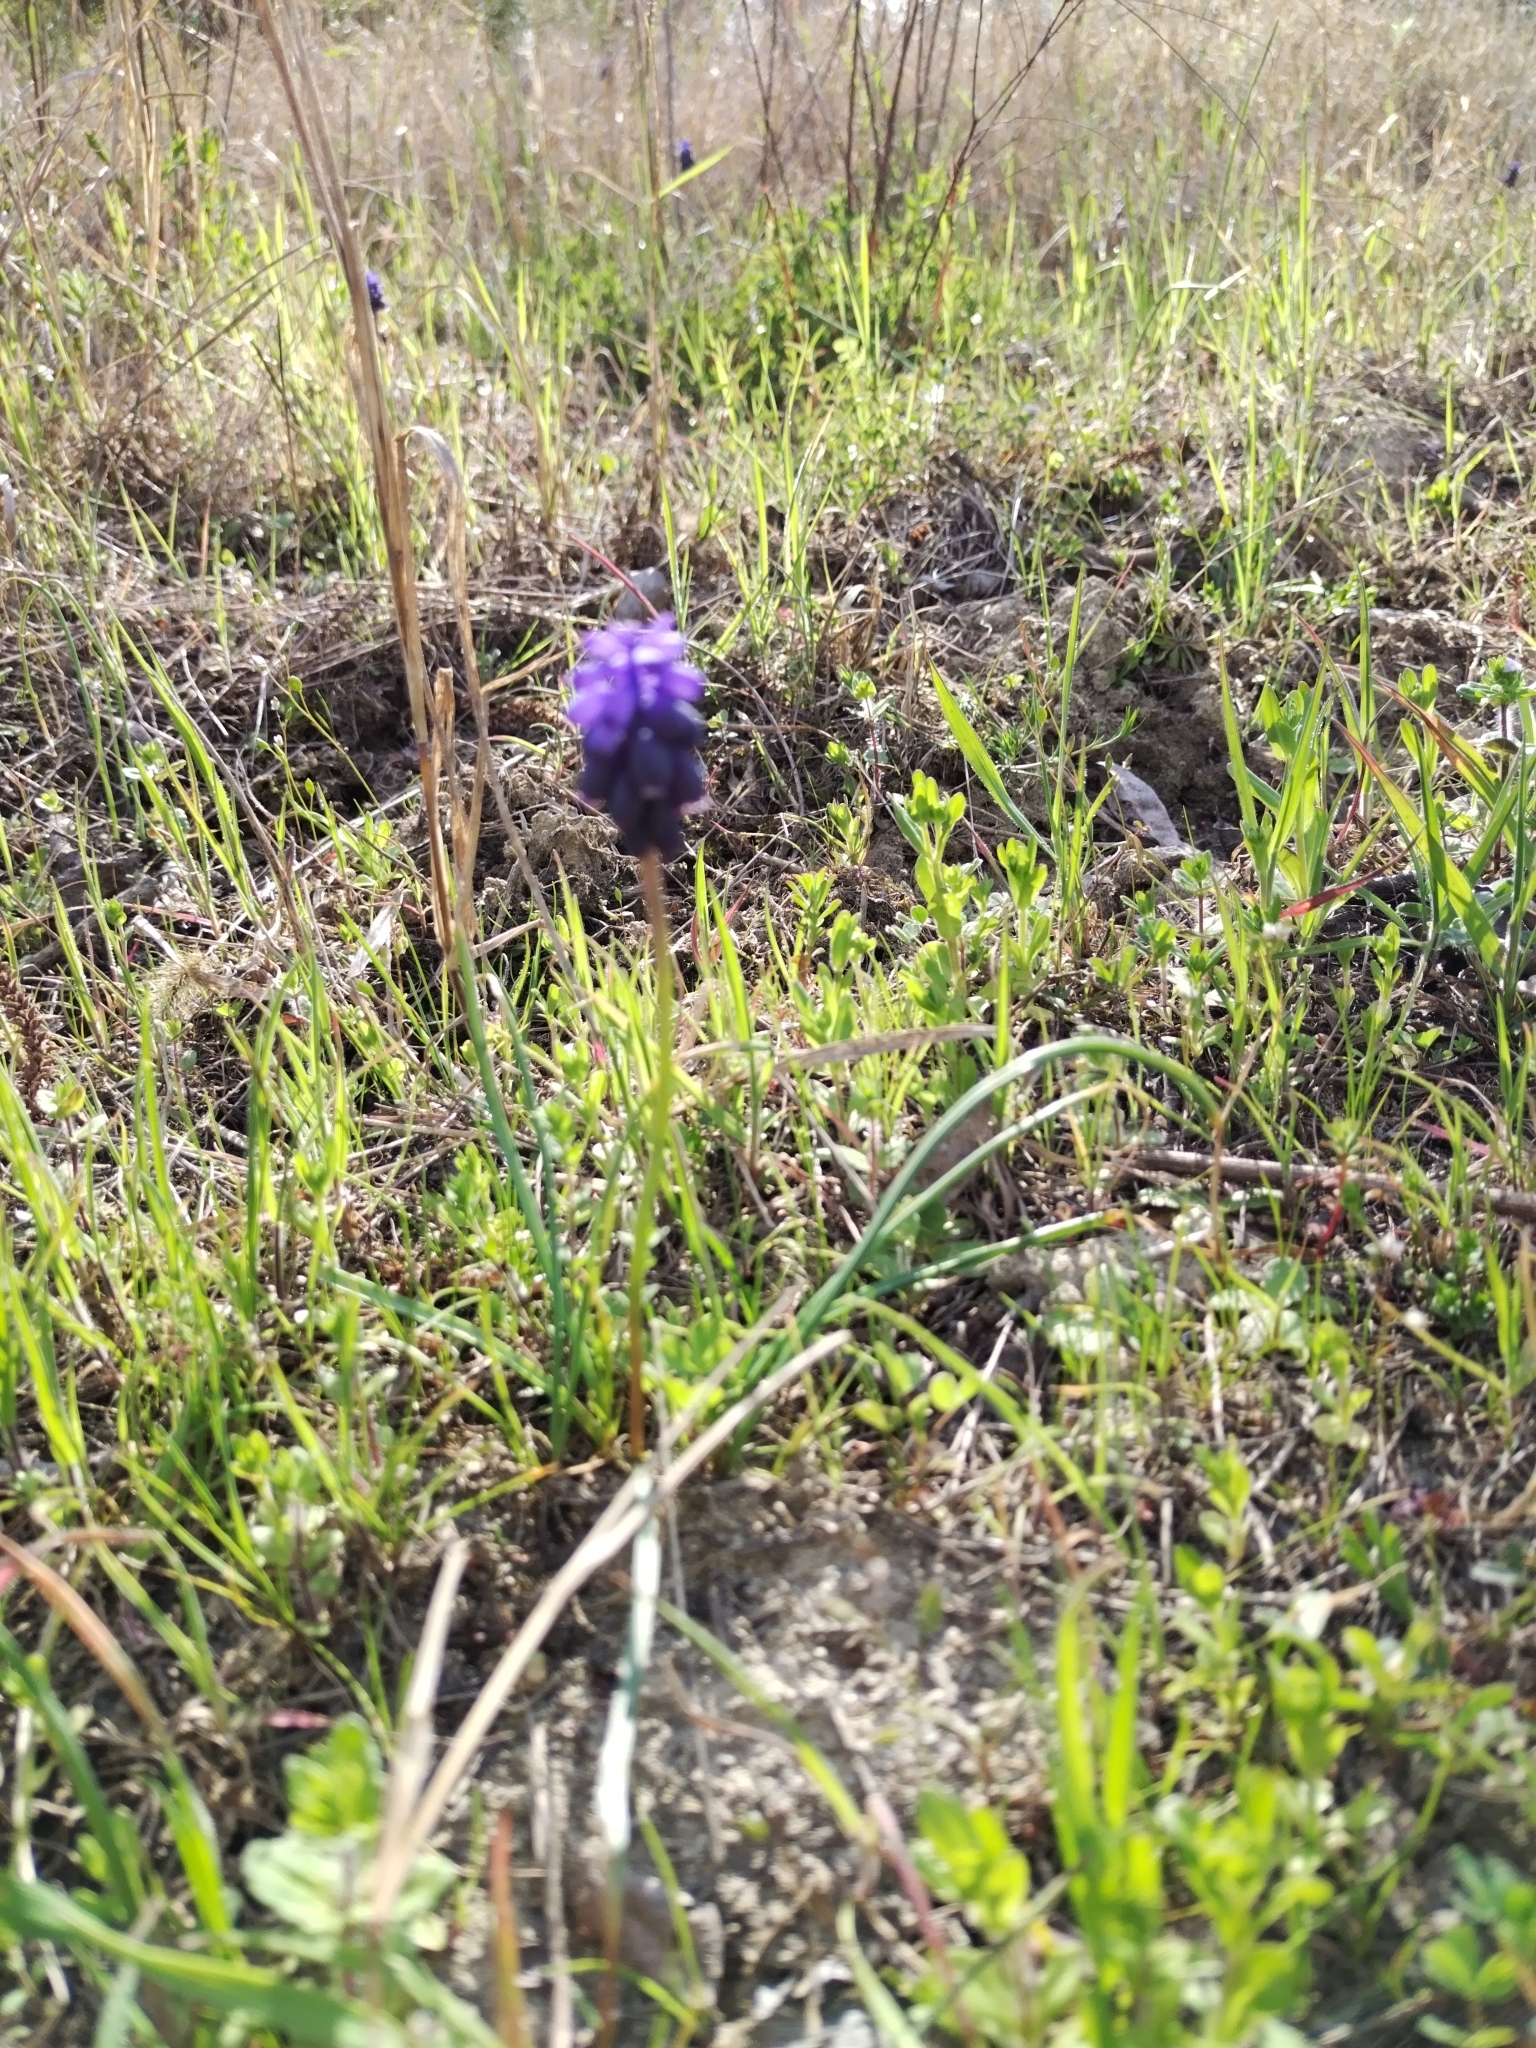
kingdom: Plantae
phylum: Tracheophyta
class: Liliopsida
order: Asparagales
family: Asparagaceae
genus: Muscari
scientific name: Muscari neglectum
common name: Grape-hyacinth
